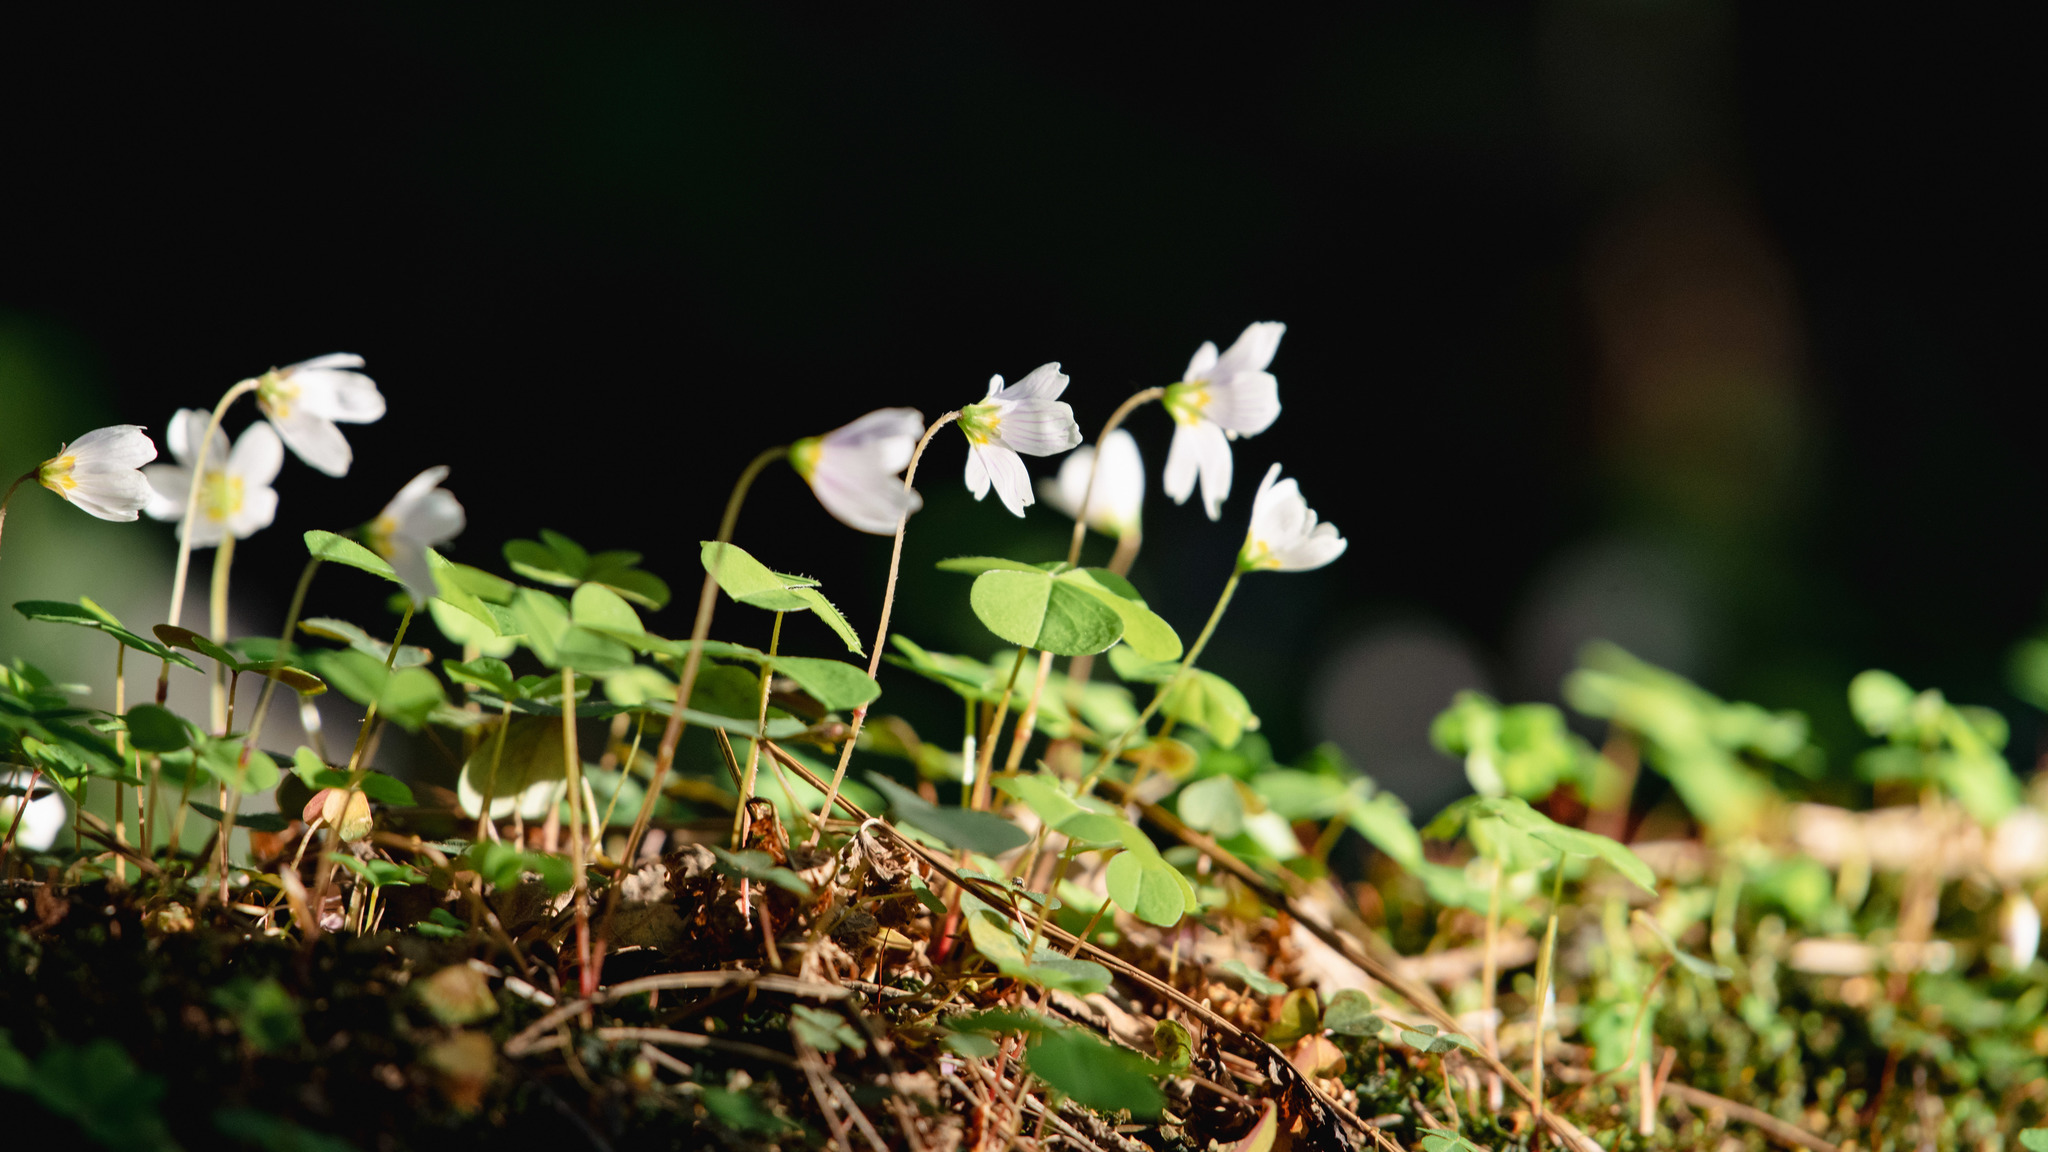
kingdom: Plantae
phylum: Tracheophyta
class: Magnoliopsida
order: Oxalidales
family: Oxalidaceae
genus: Oxalis
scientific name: Oxalis acetosella
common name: Wood-sorrel
